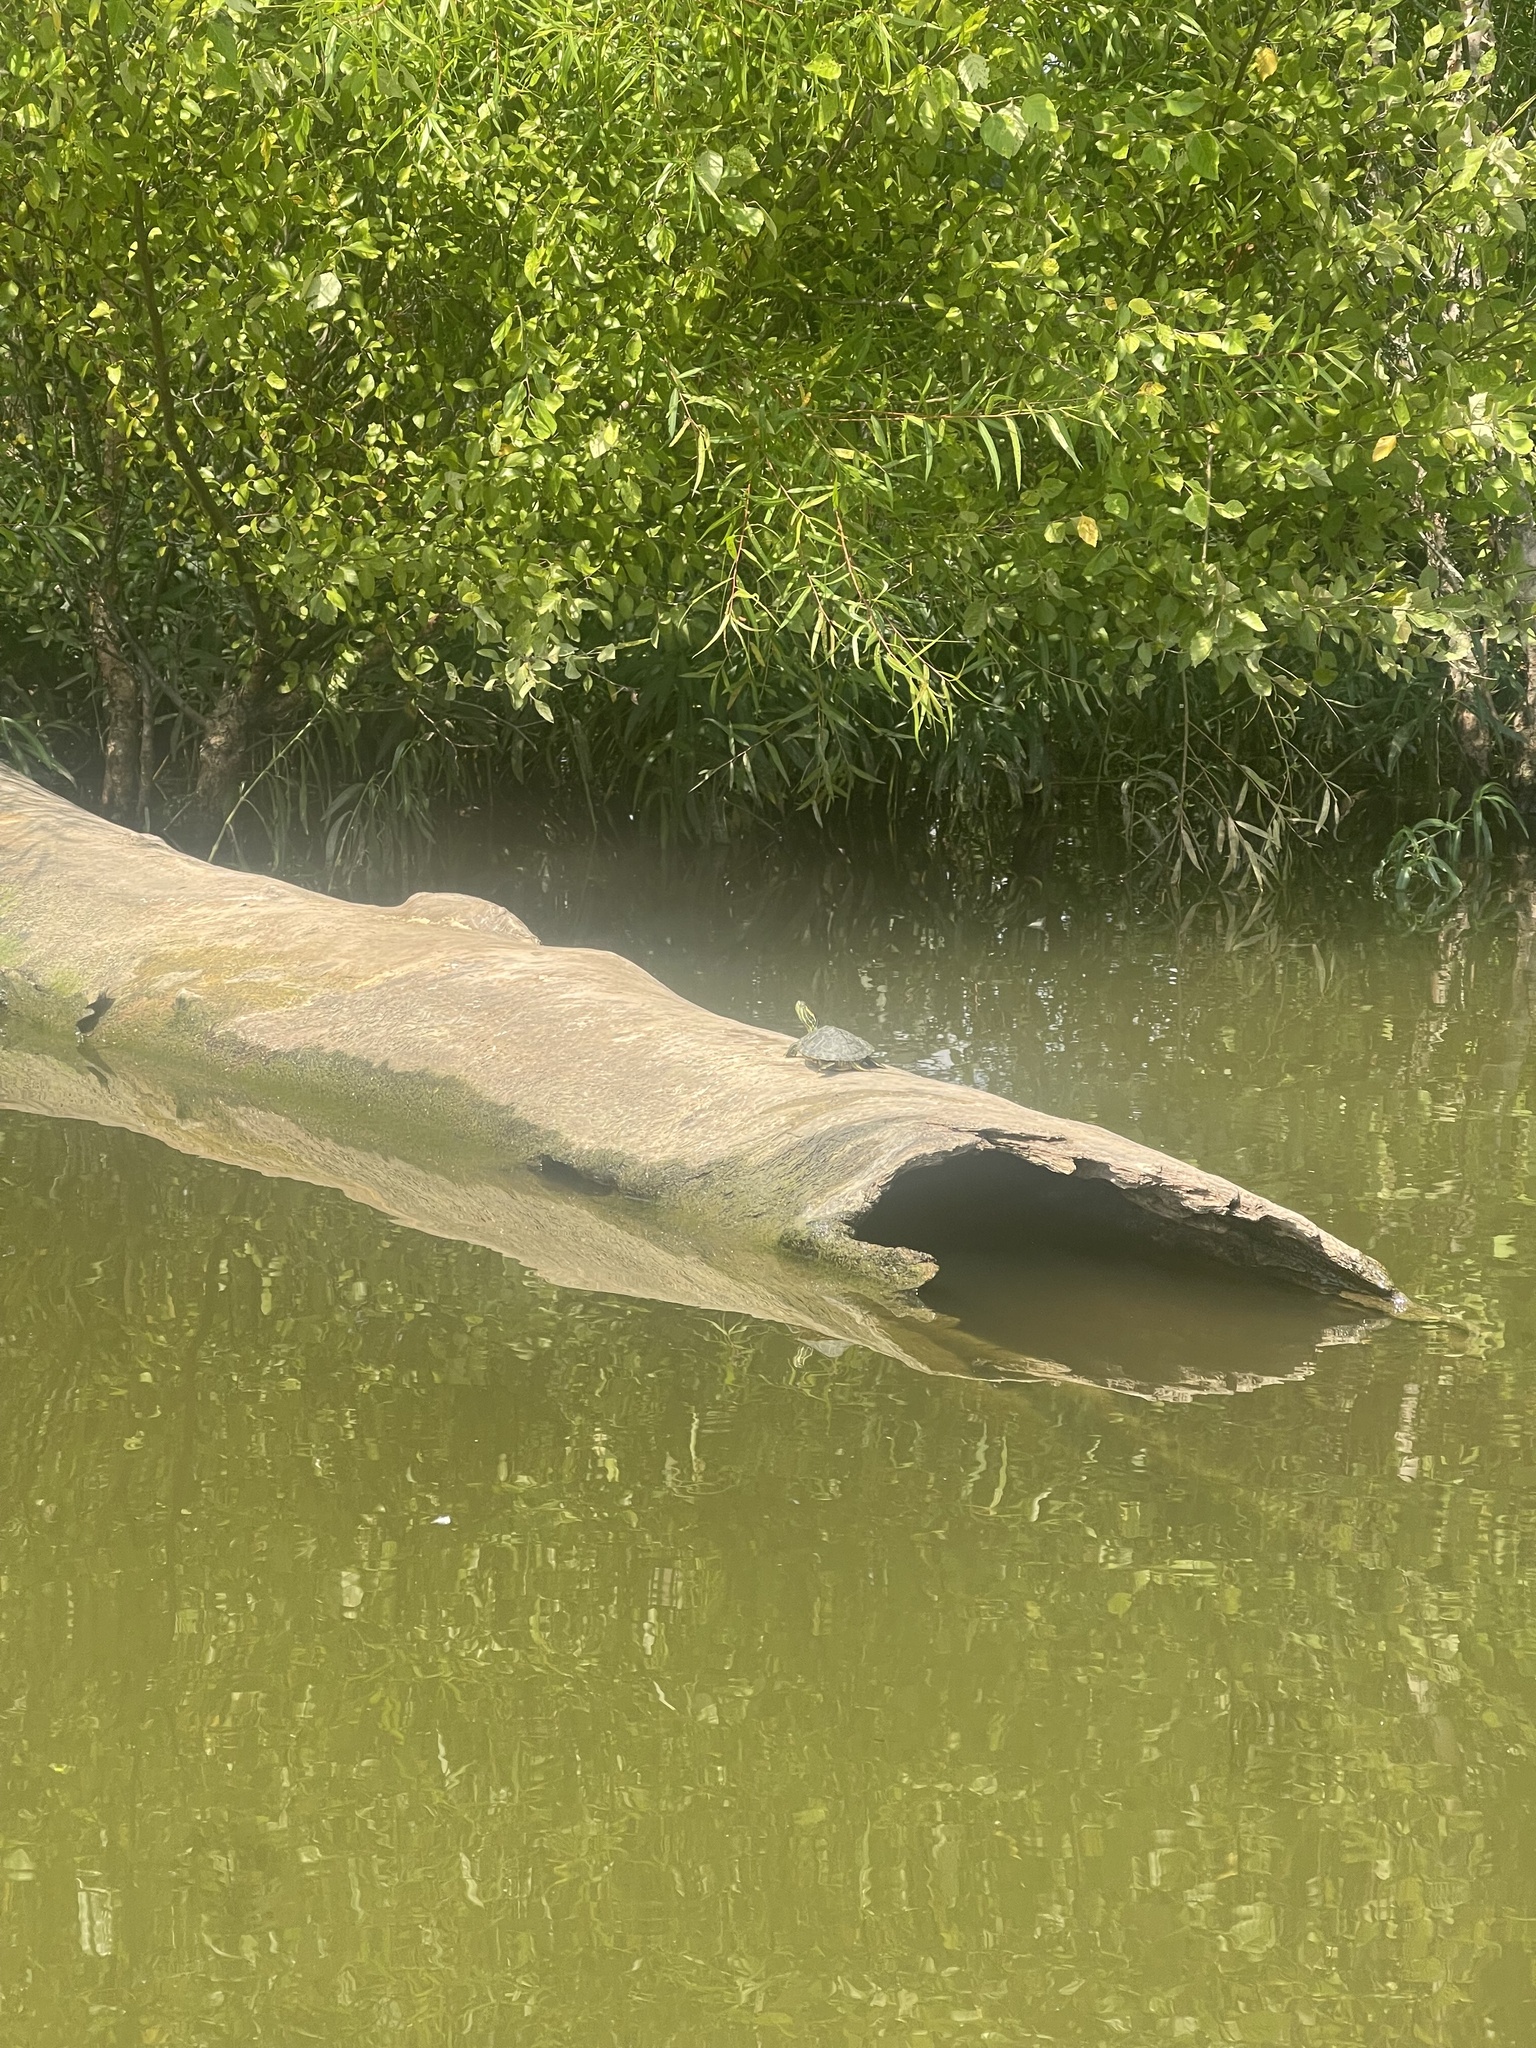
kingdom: Animalia
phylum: Chordata
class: Testudines
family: Emydidae
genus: Trachemys
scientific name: Trachemys scripta
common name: Slider
